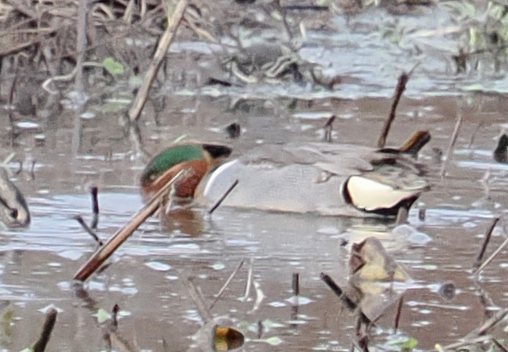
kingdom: Animalia
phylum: Chordata
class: Aves
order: Anseriformes
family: Anatidae
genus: Anas
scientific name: Anas crecca
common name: Eurasian teal
